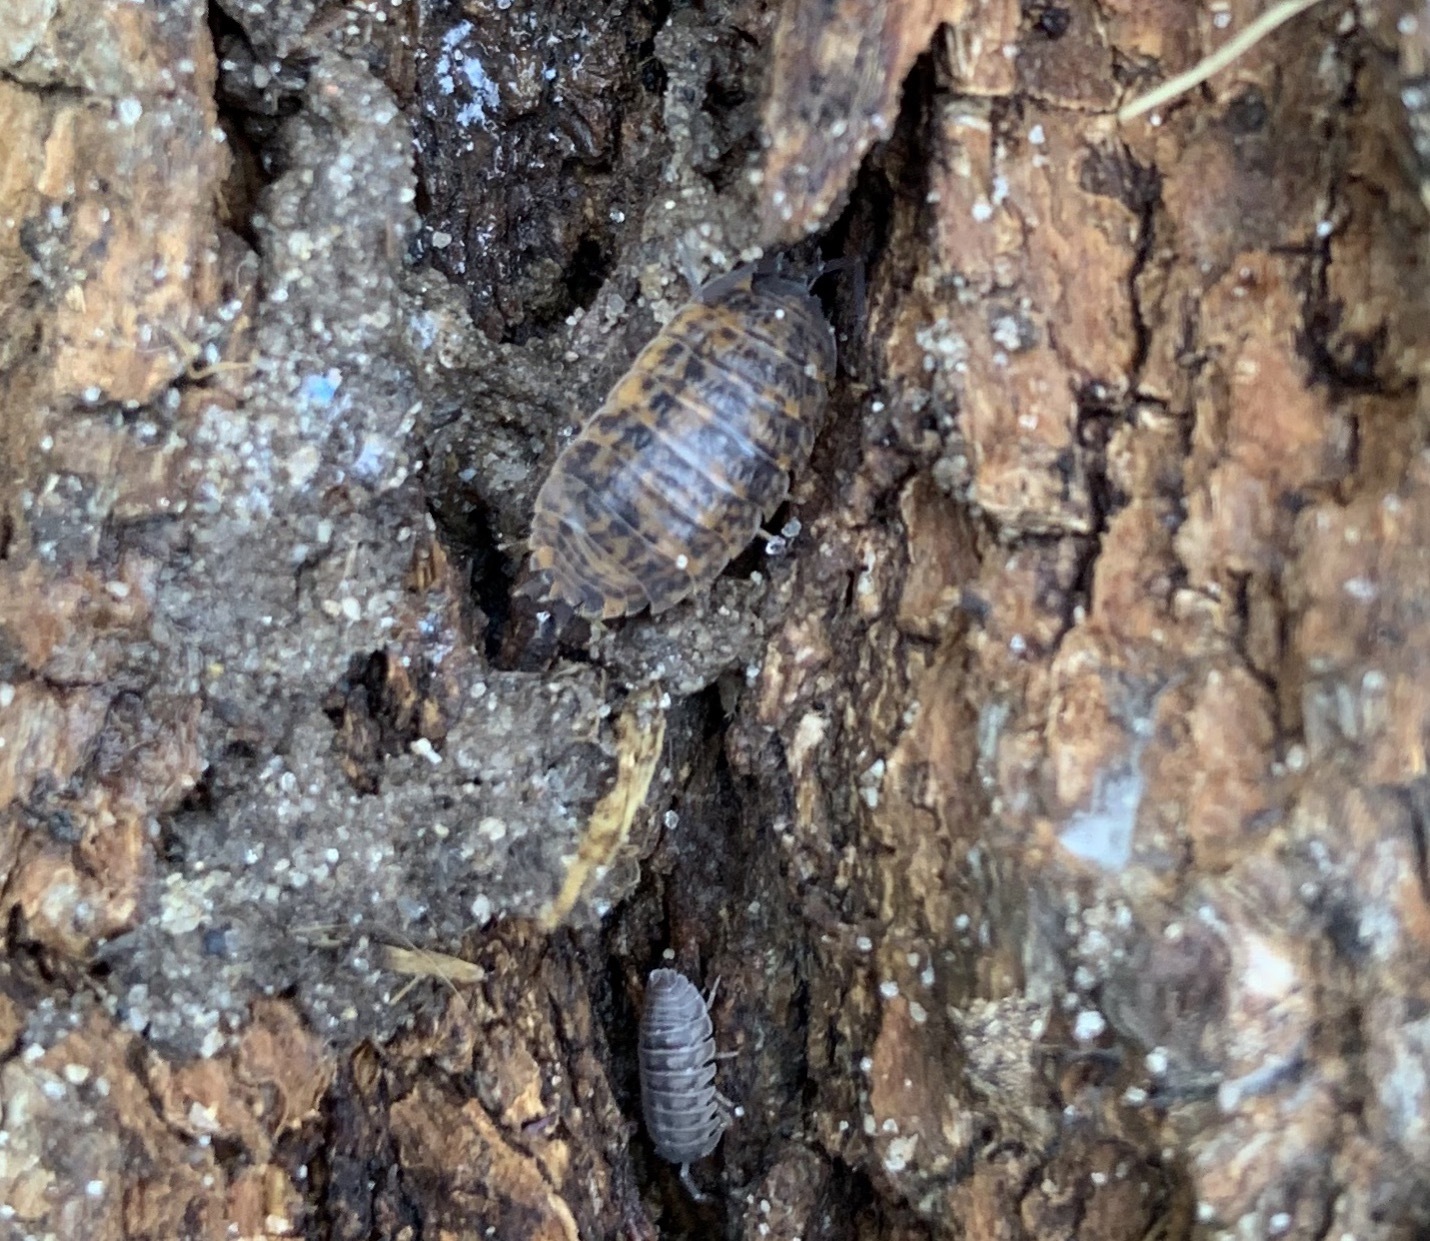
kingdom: Animalia
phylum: Arthropoda
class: Malacostraca
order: Isopoda
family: Trachelipodidae
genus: Trachelipus
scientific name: Trachelipus rathkii
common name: Isopod
